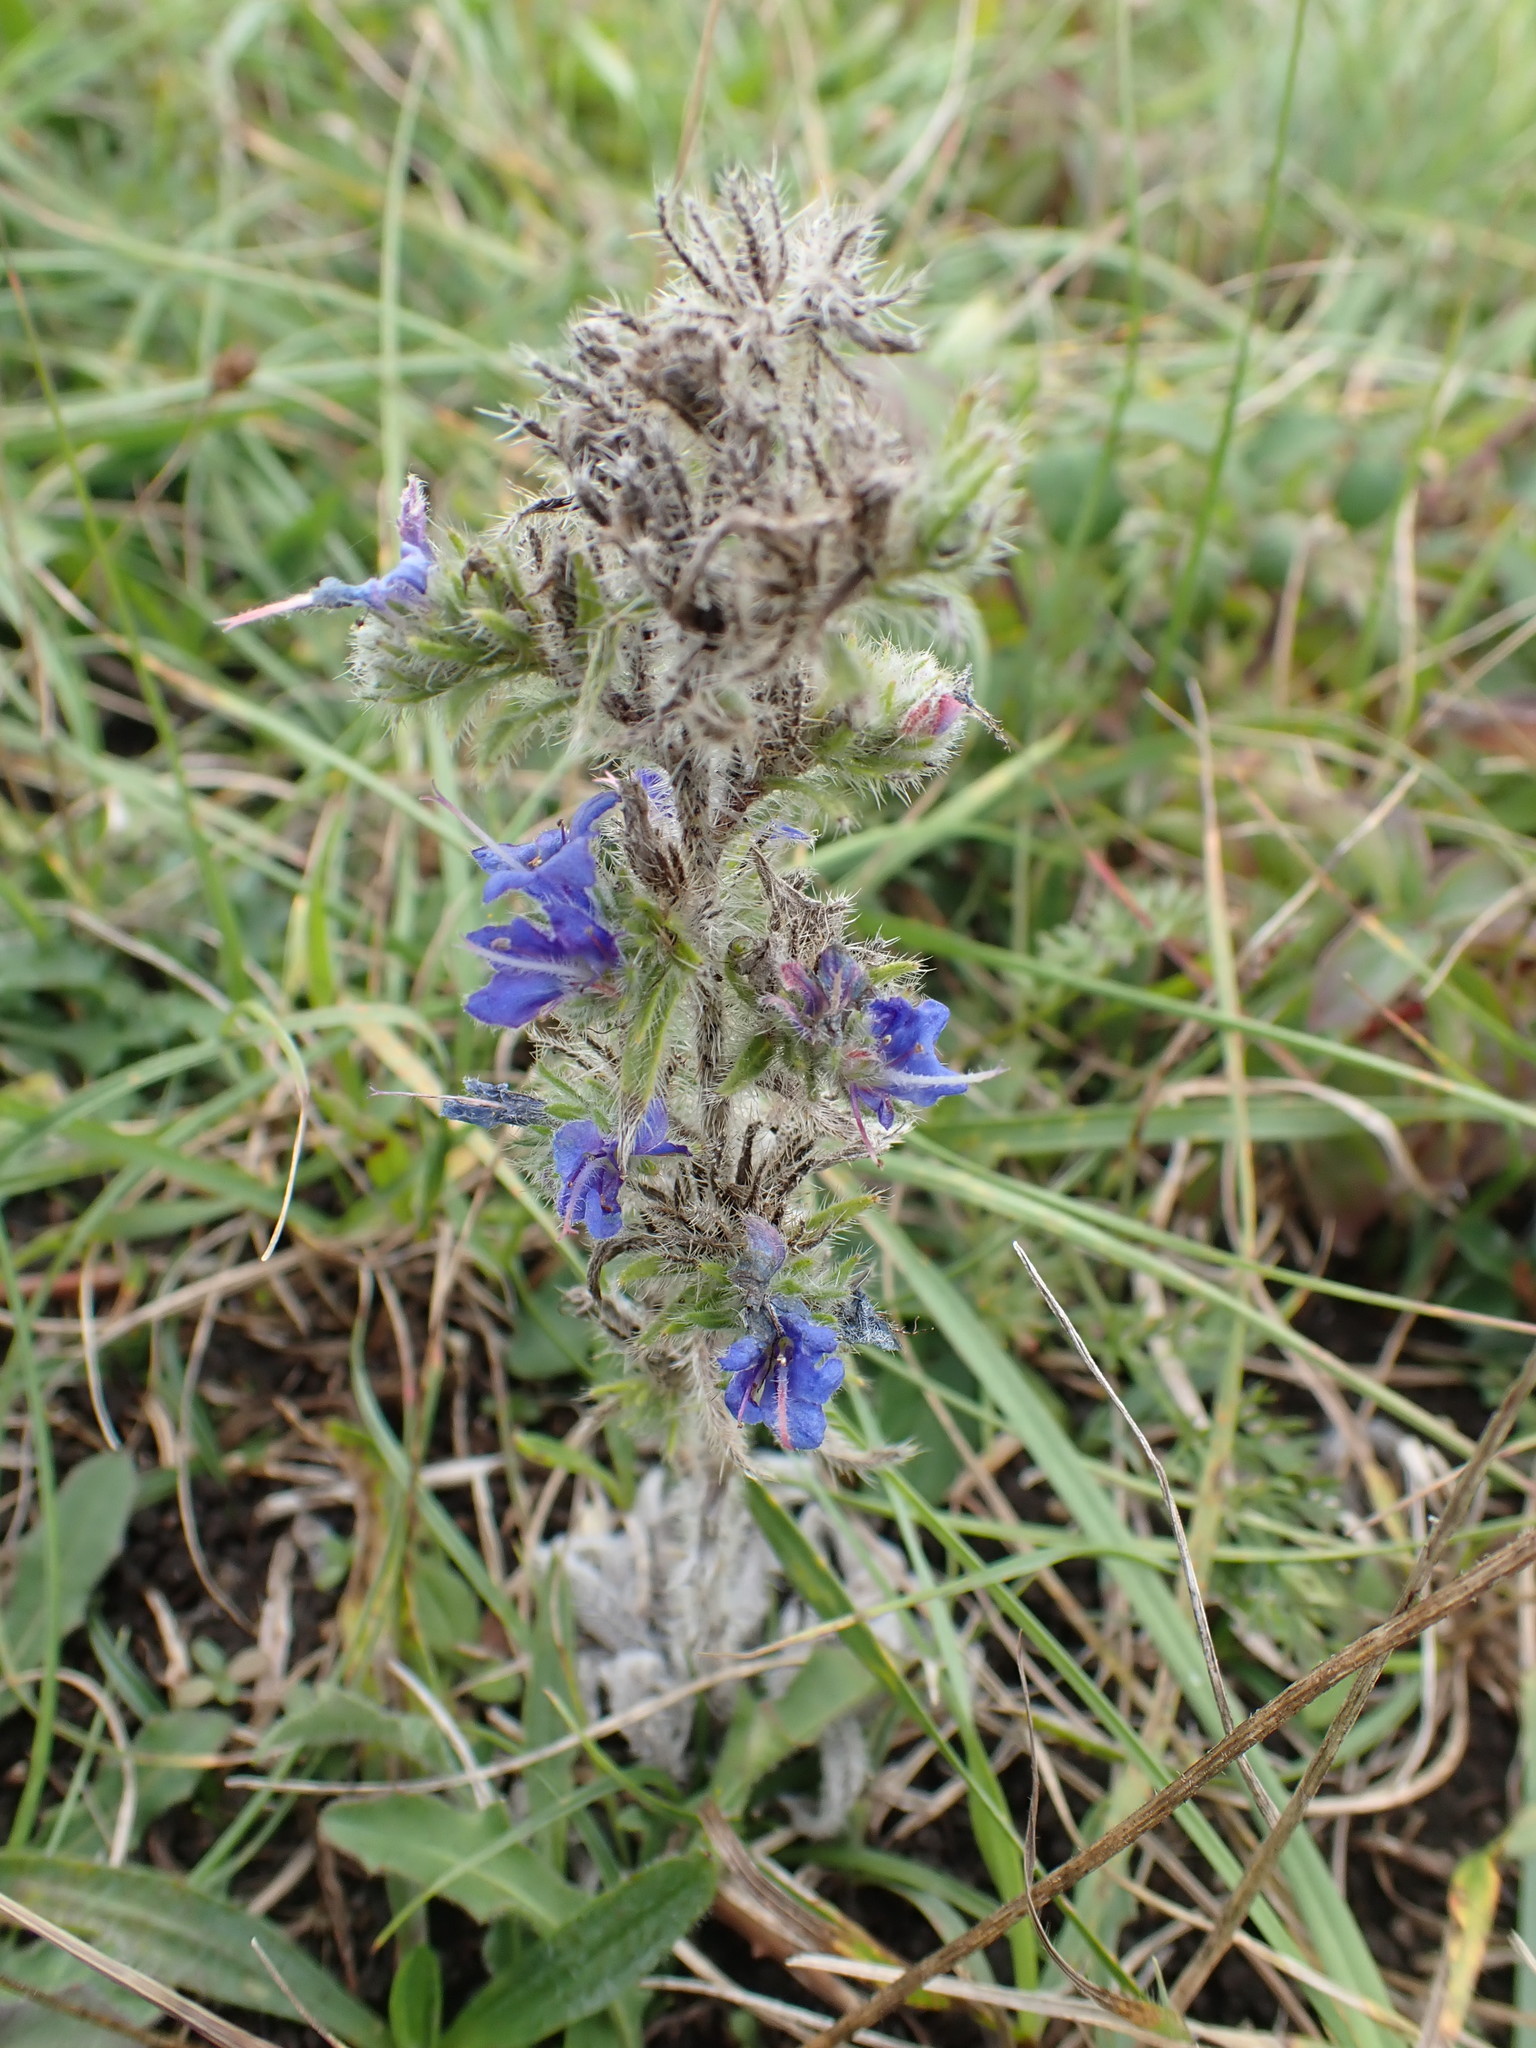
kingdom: Plantae
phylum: Tracheophyta
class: Magnoliopsida
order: Boraginales
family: Boraginaceae
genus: Echium
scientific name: Echium vulgare
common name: Common viper's bugloss
